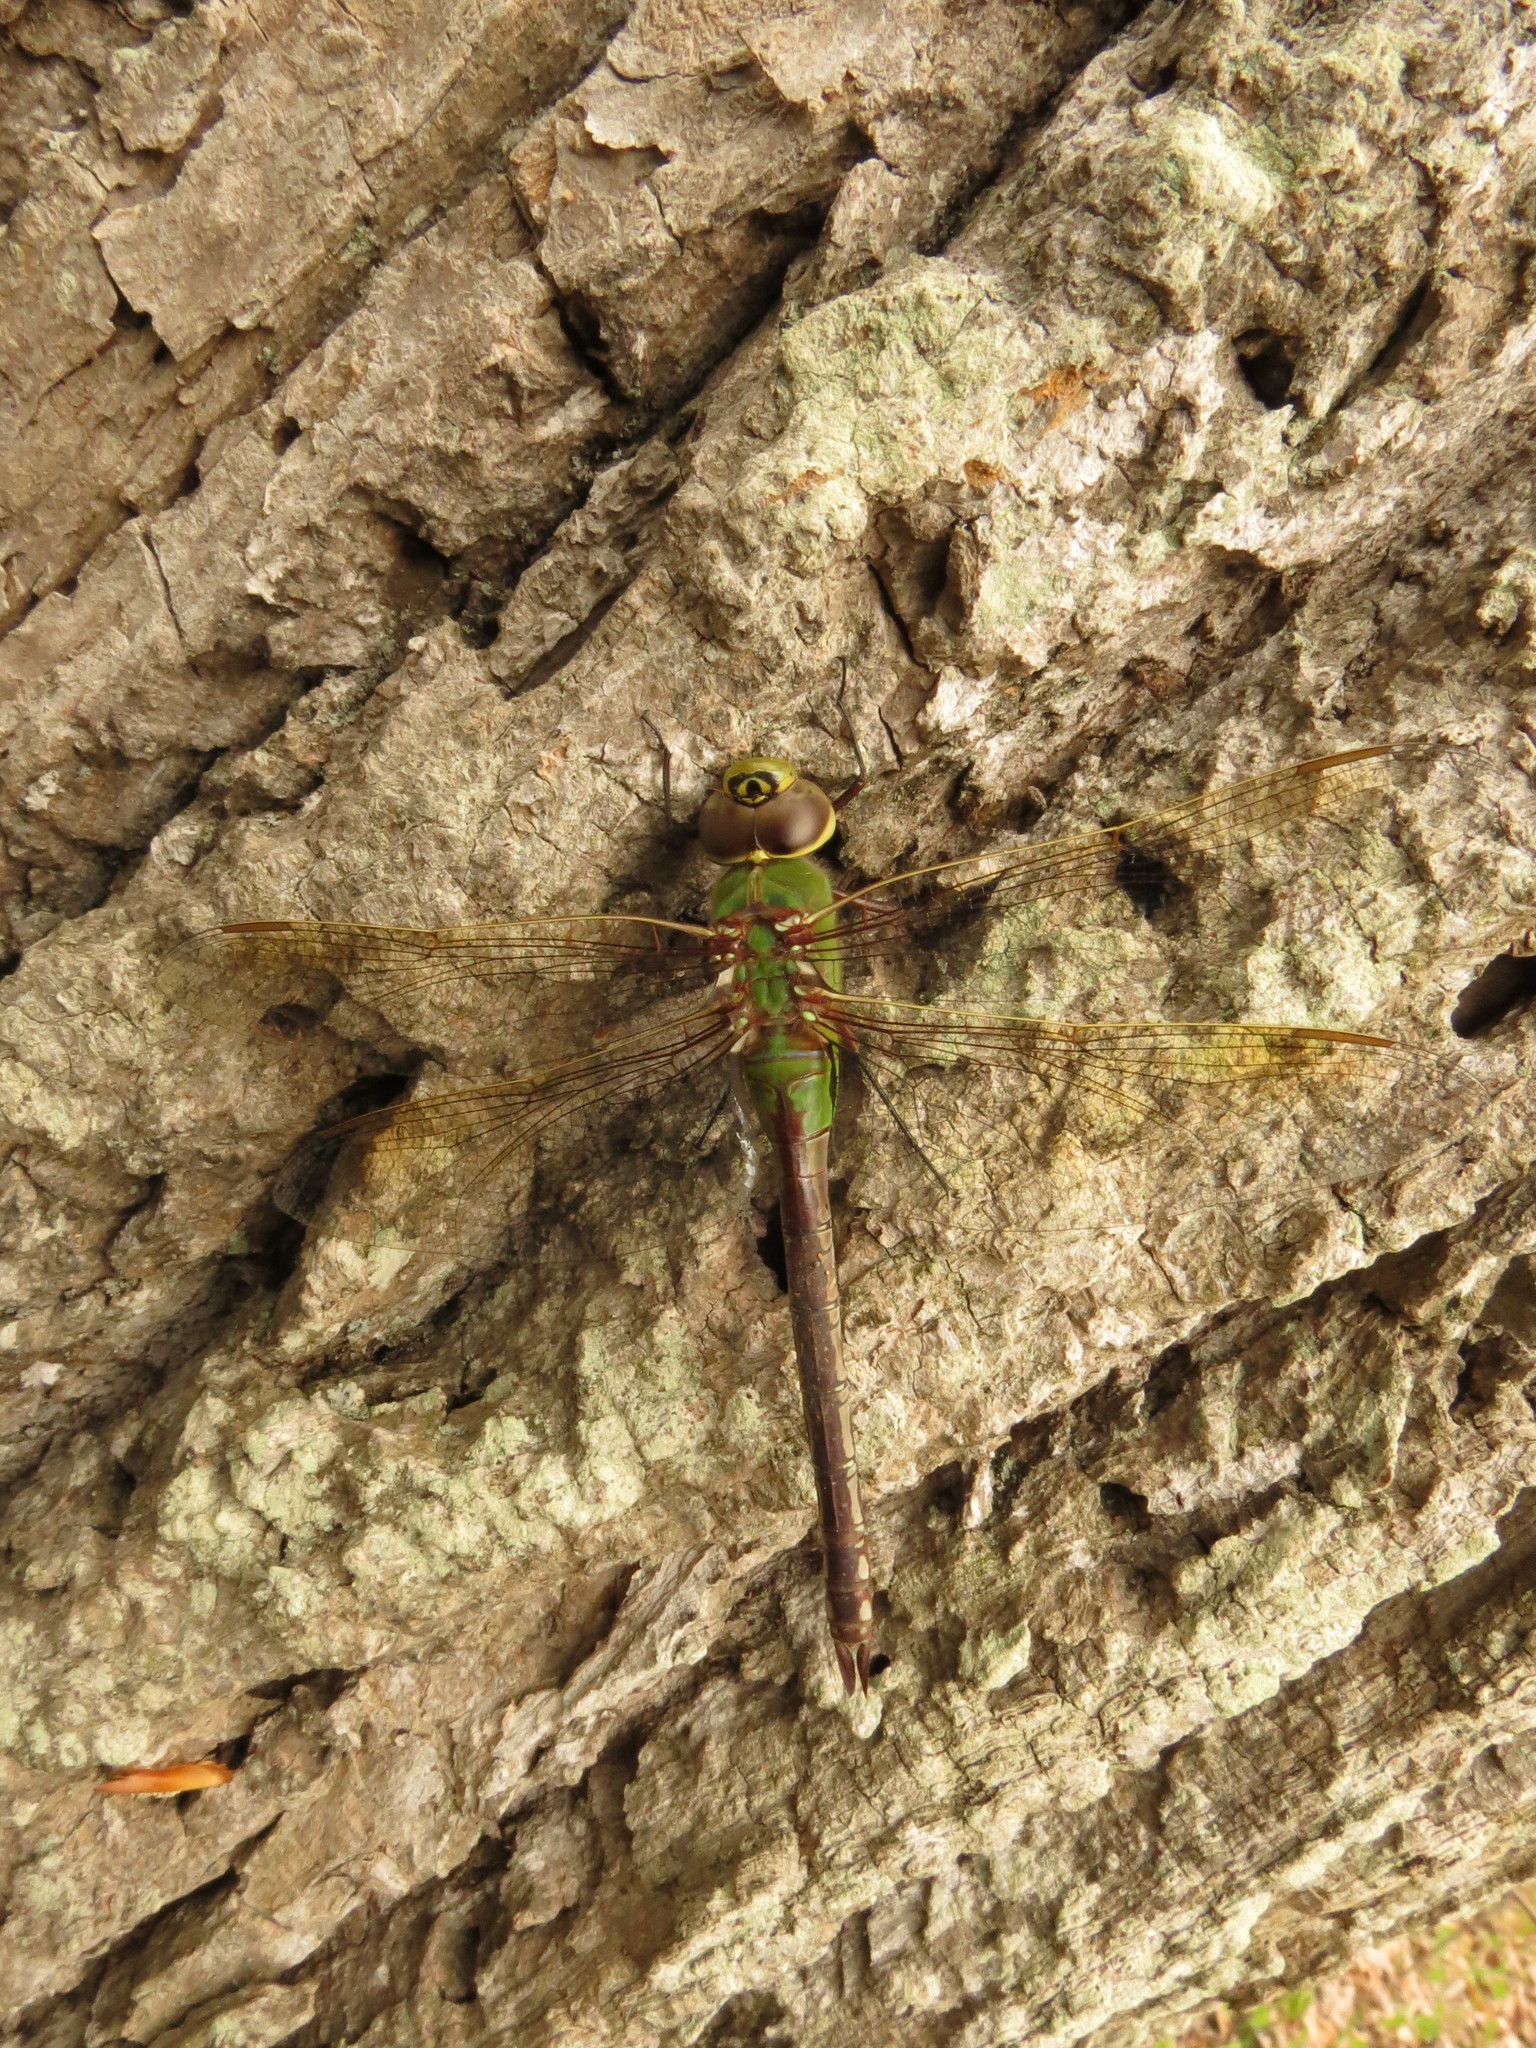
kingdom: Animalia
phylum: Arthropoda
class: Insecta
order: Odonata
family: Aeshnidae
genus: Anax
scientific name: Anax junius
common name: Common green darner
